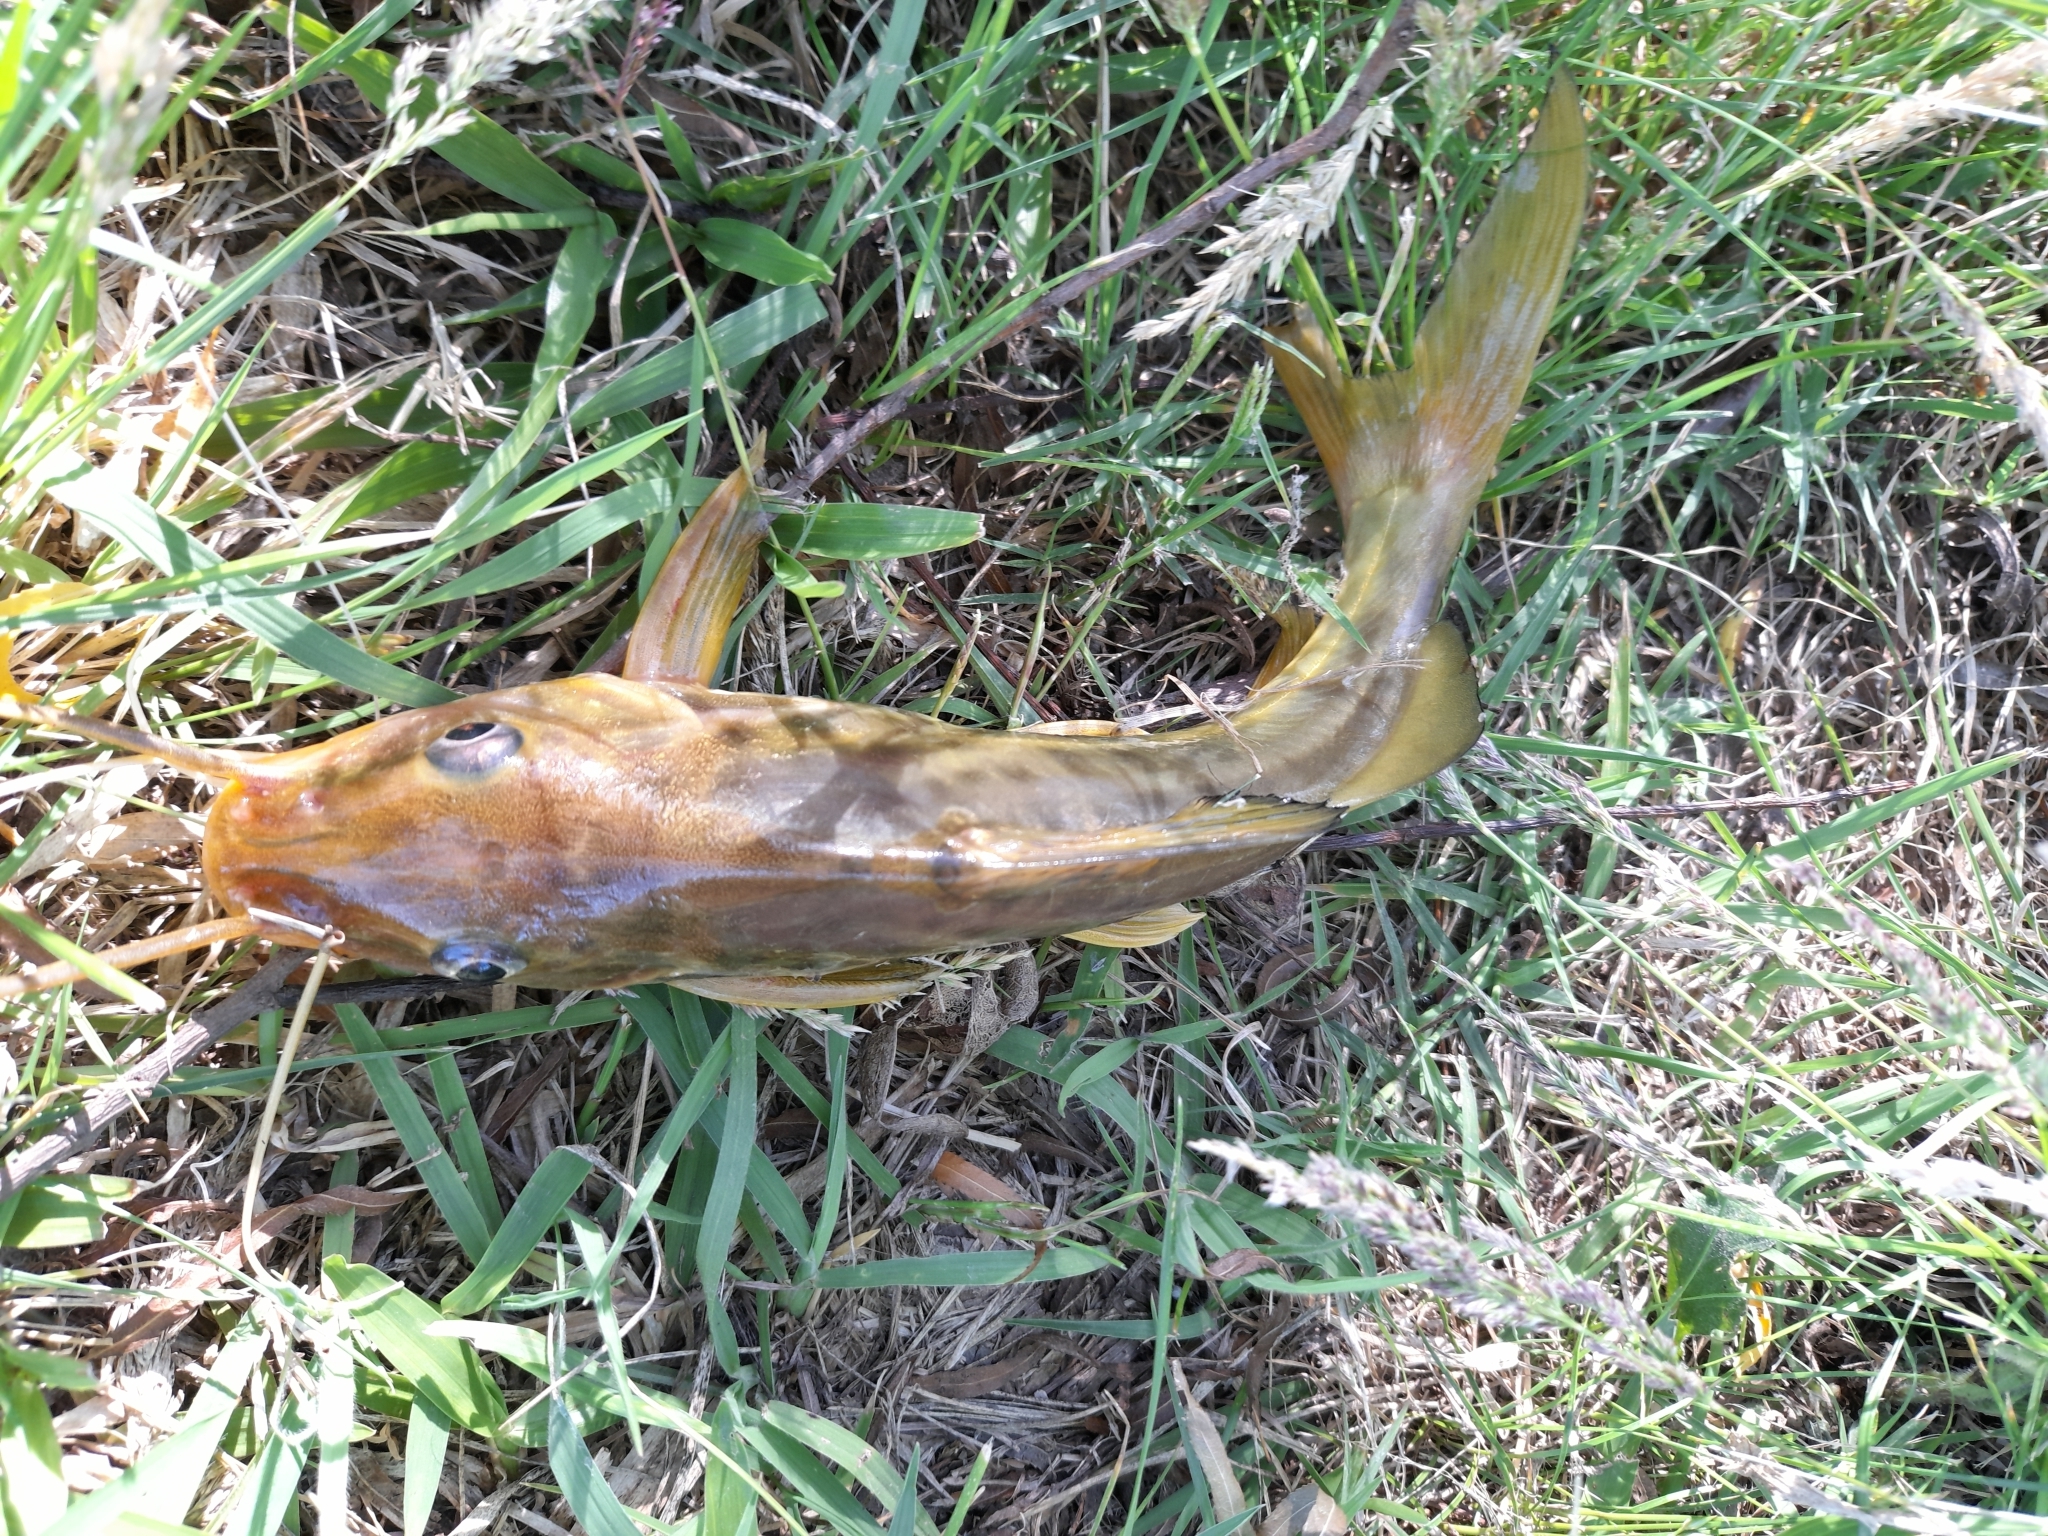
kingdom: Animalia
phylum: Chordata
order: Siluriformes
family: Pimelodidae
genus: Pimelodus
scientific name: Pimelodus maculatus
